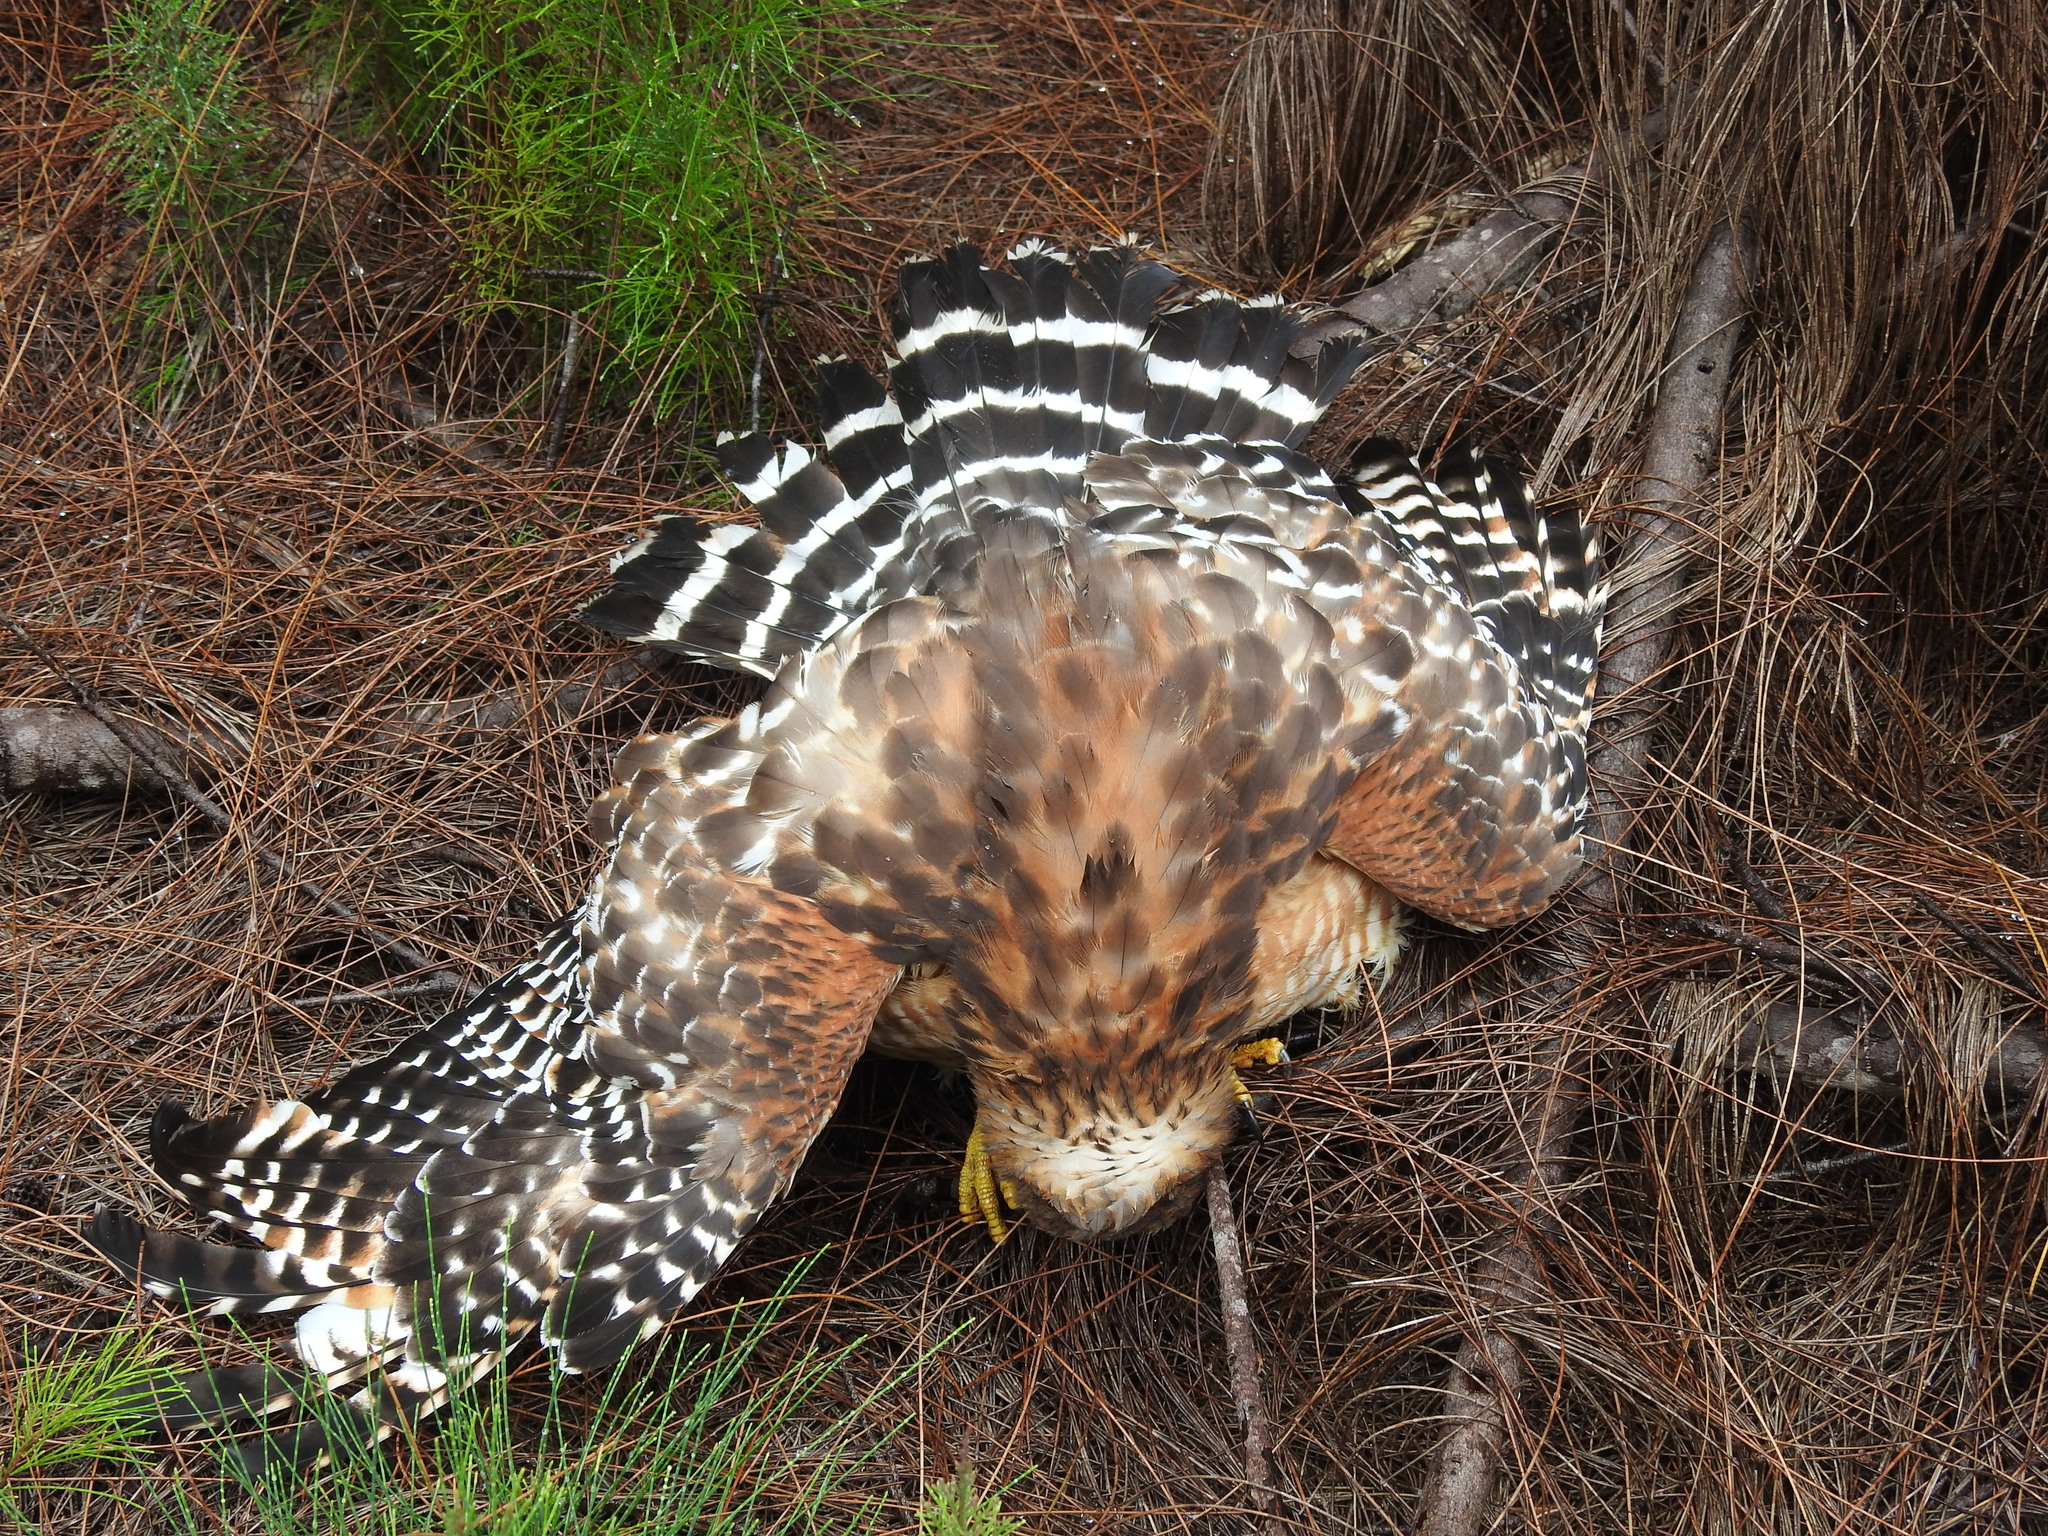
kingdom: Animalia
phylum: Chordata
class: Aves
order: Accipitriformes
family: Accipitridae
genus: Buteo
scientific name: Buteo lineatus
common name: Red-shouldered hawk
